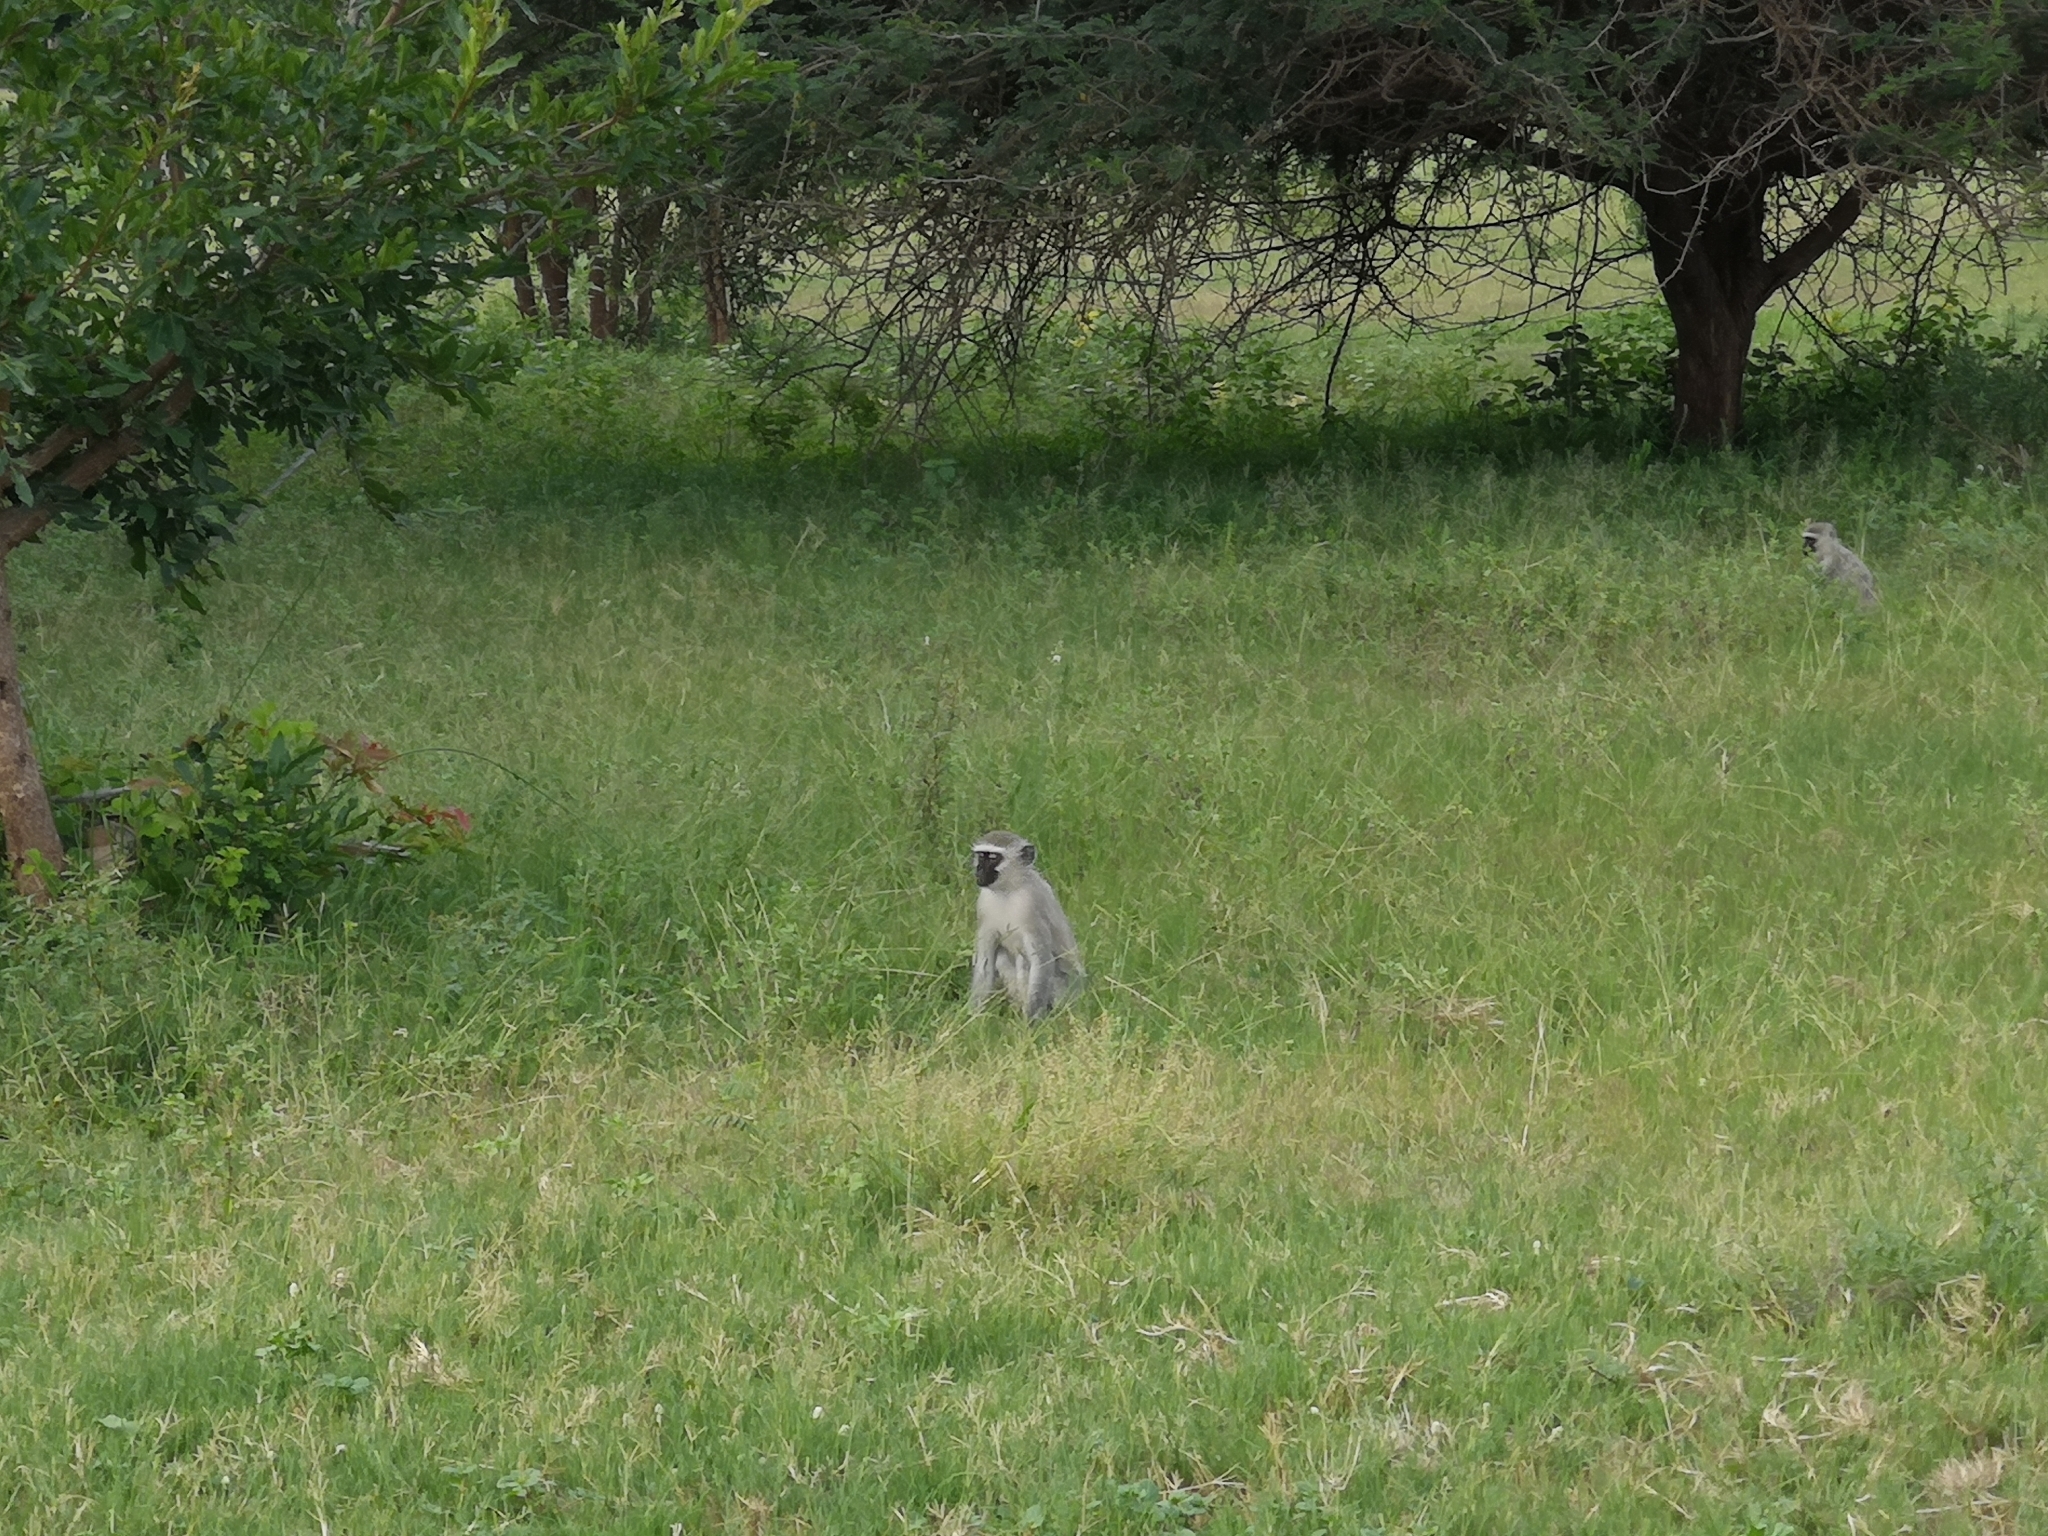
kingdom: Animalia
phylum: Chordata
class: Mammalia
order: Primates
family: Cercopithecidae
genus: Chlorocebus
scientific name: Chlorocebus pygerythrus
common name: Vervet monkey
